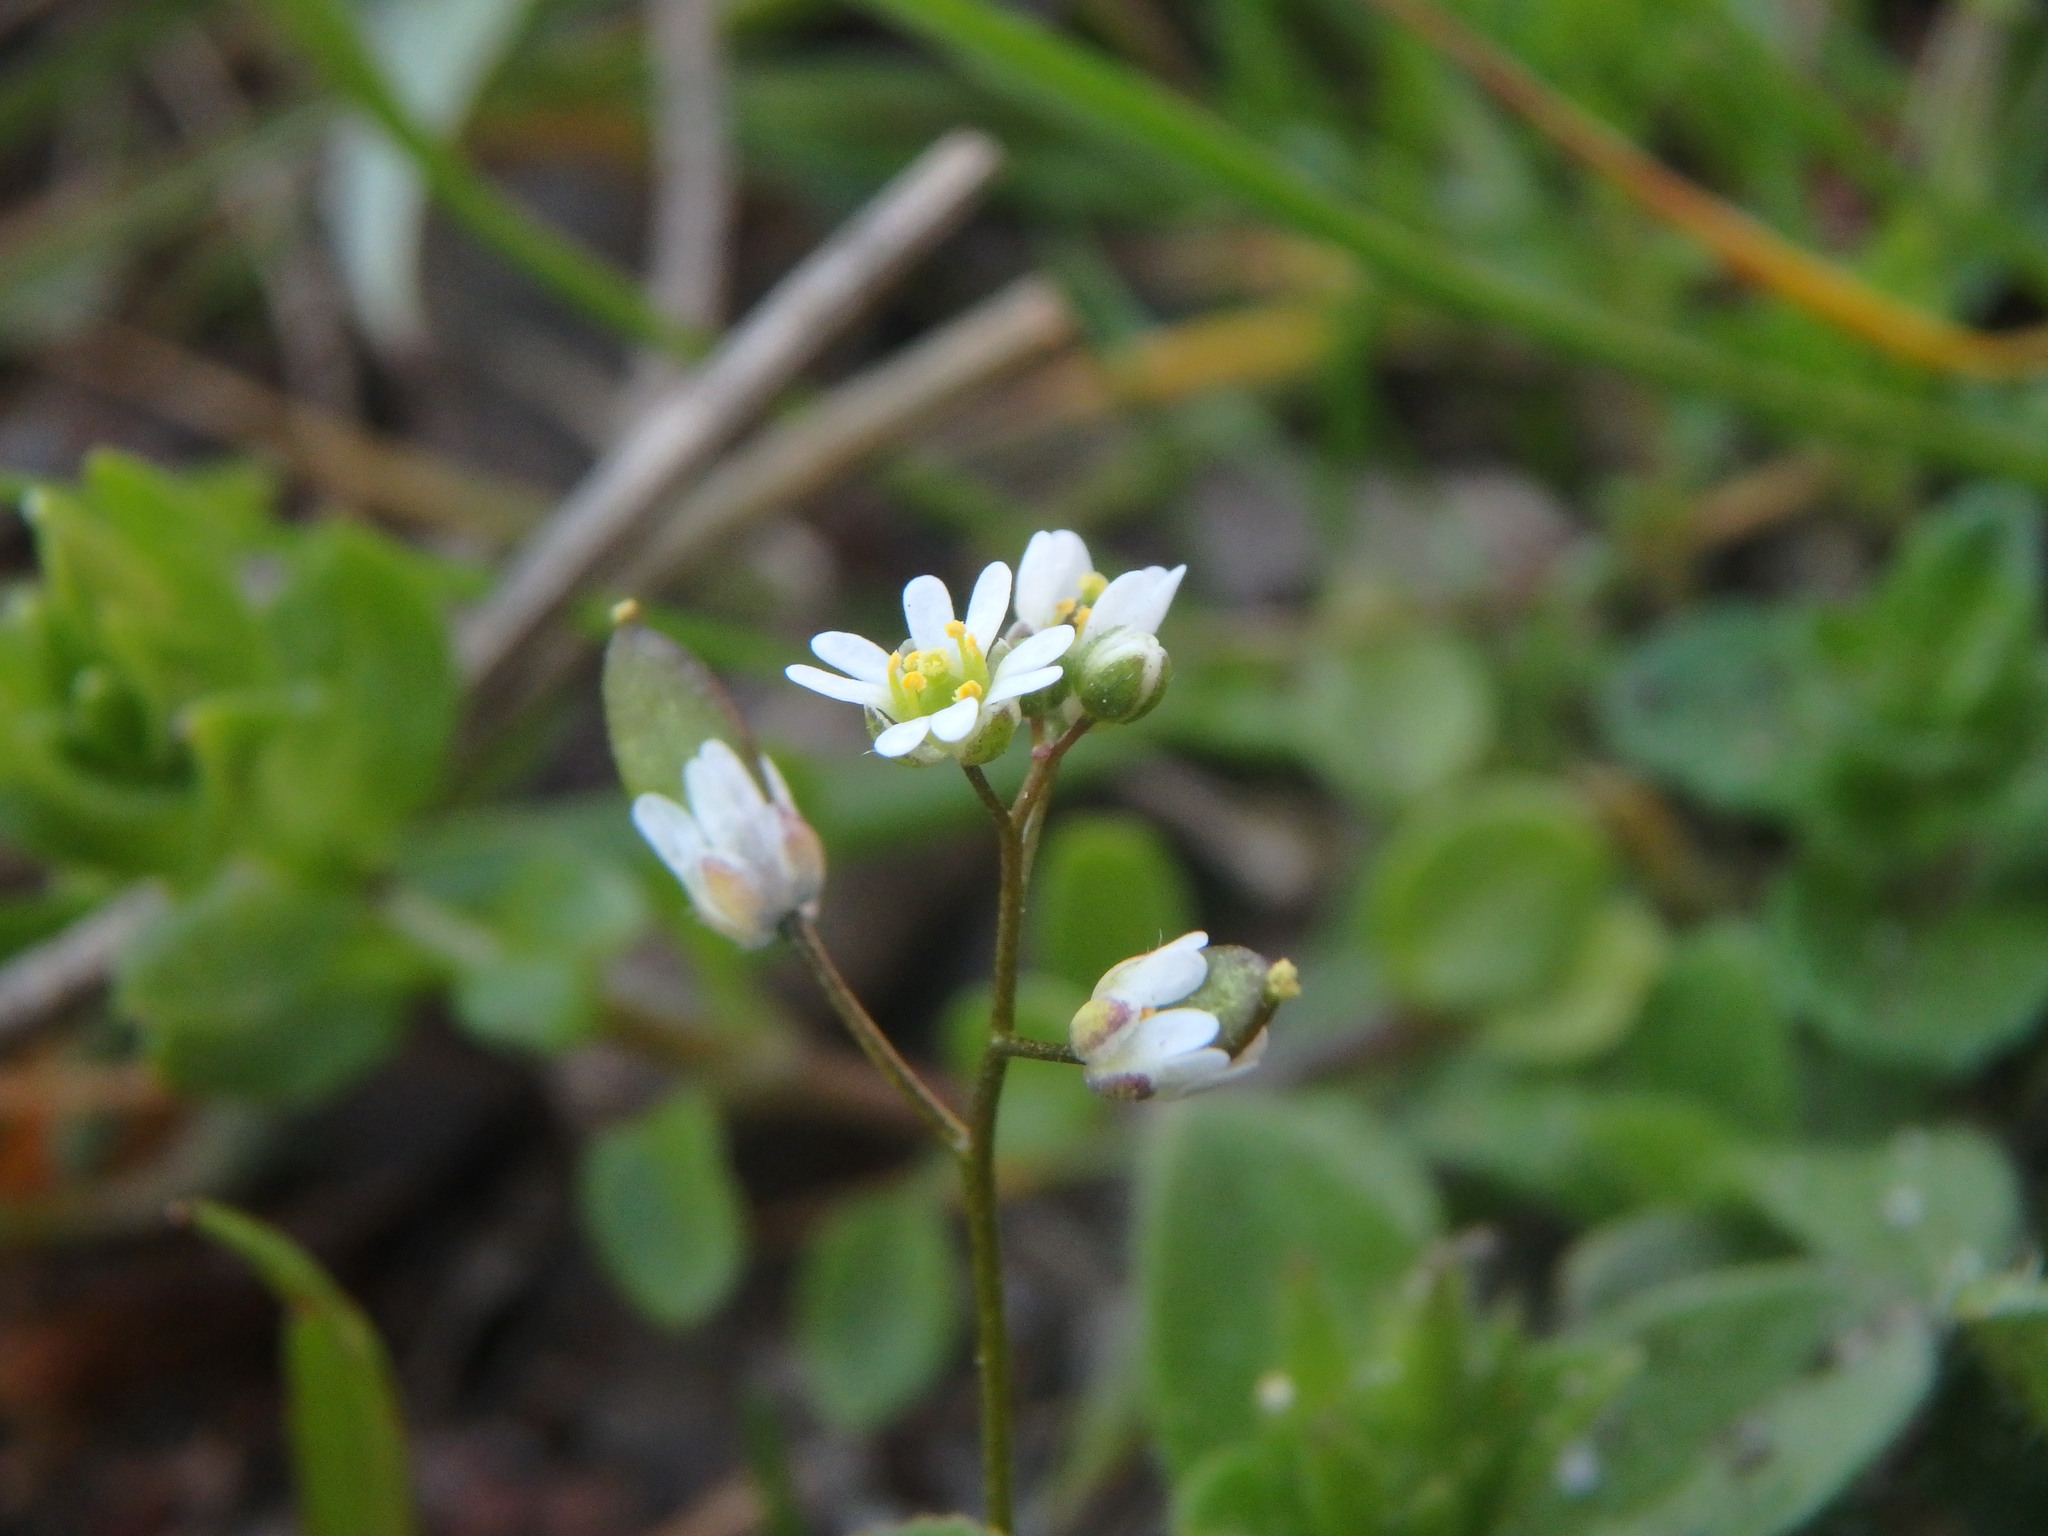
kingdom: Plantae
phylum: Tracheophyta
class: Magnoliopsida
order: Brassicales
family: Brassicaceae
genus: Draba
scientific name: Draba verna
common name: Spring draba
